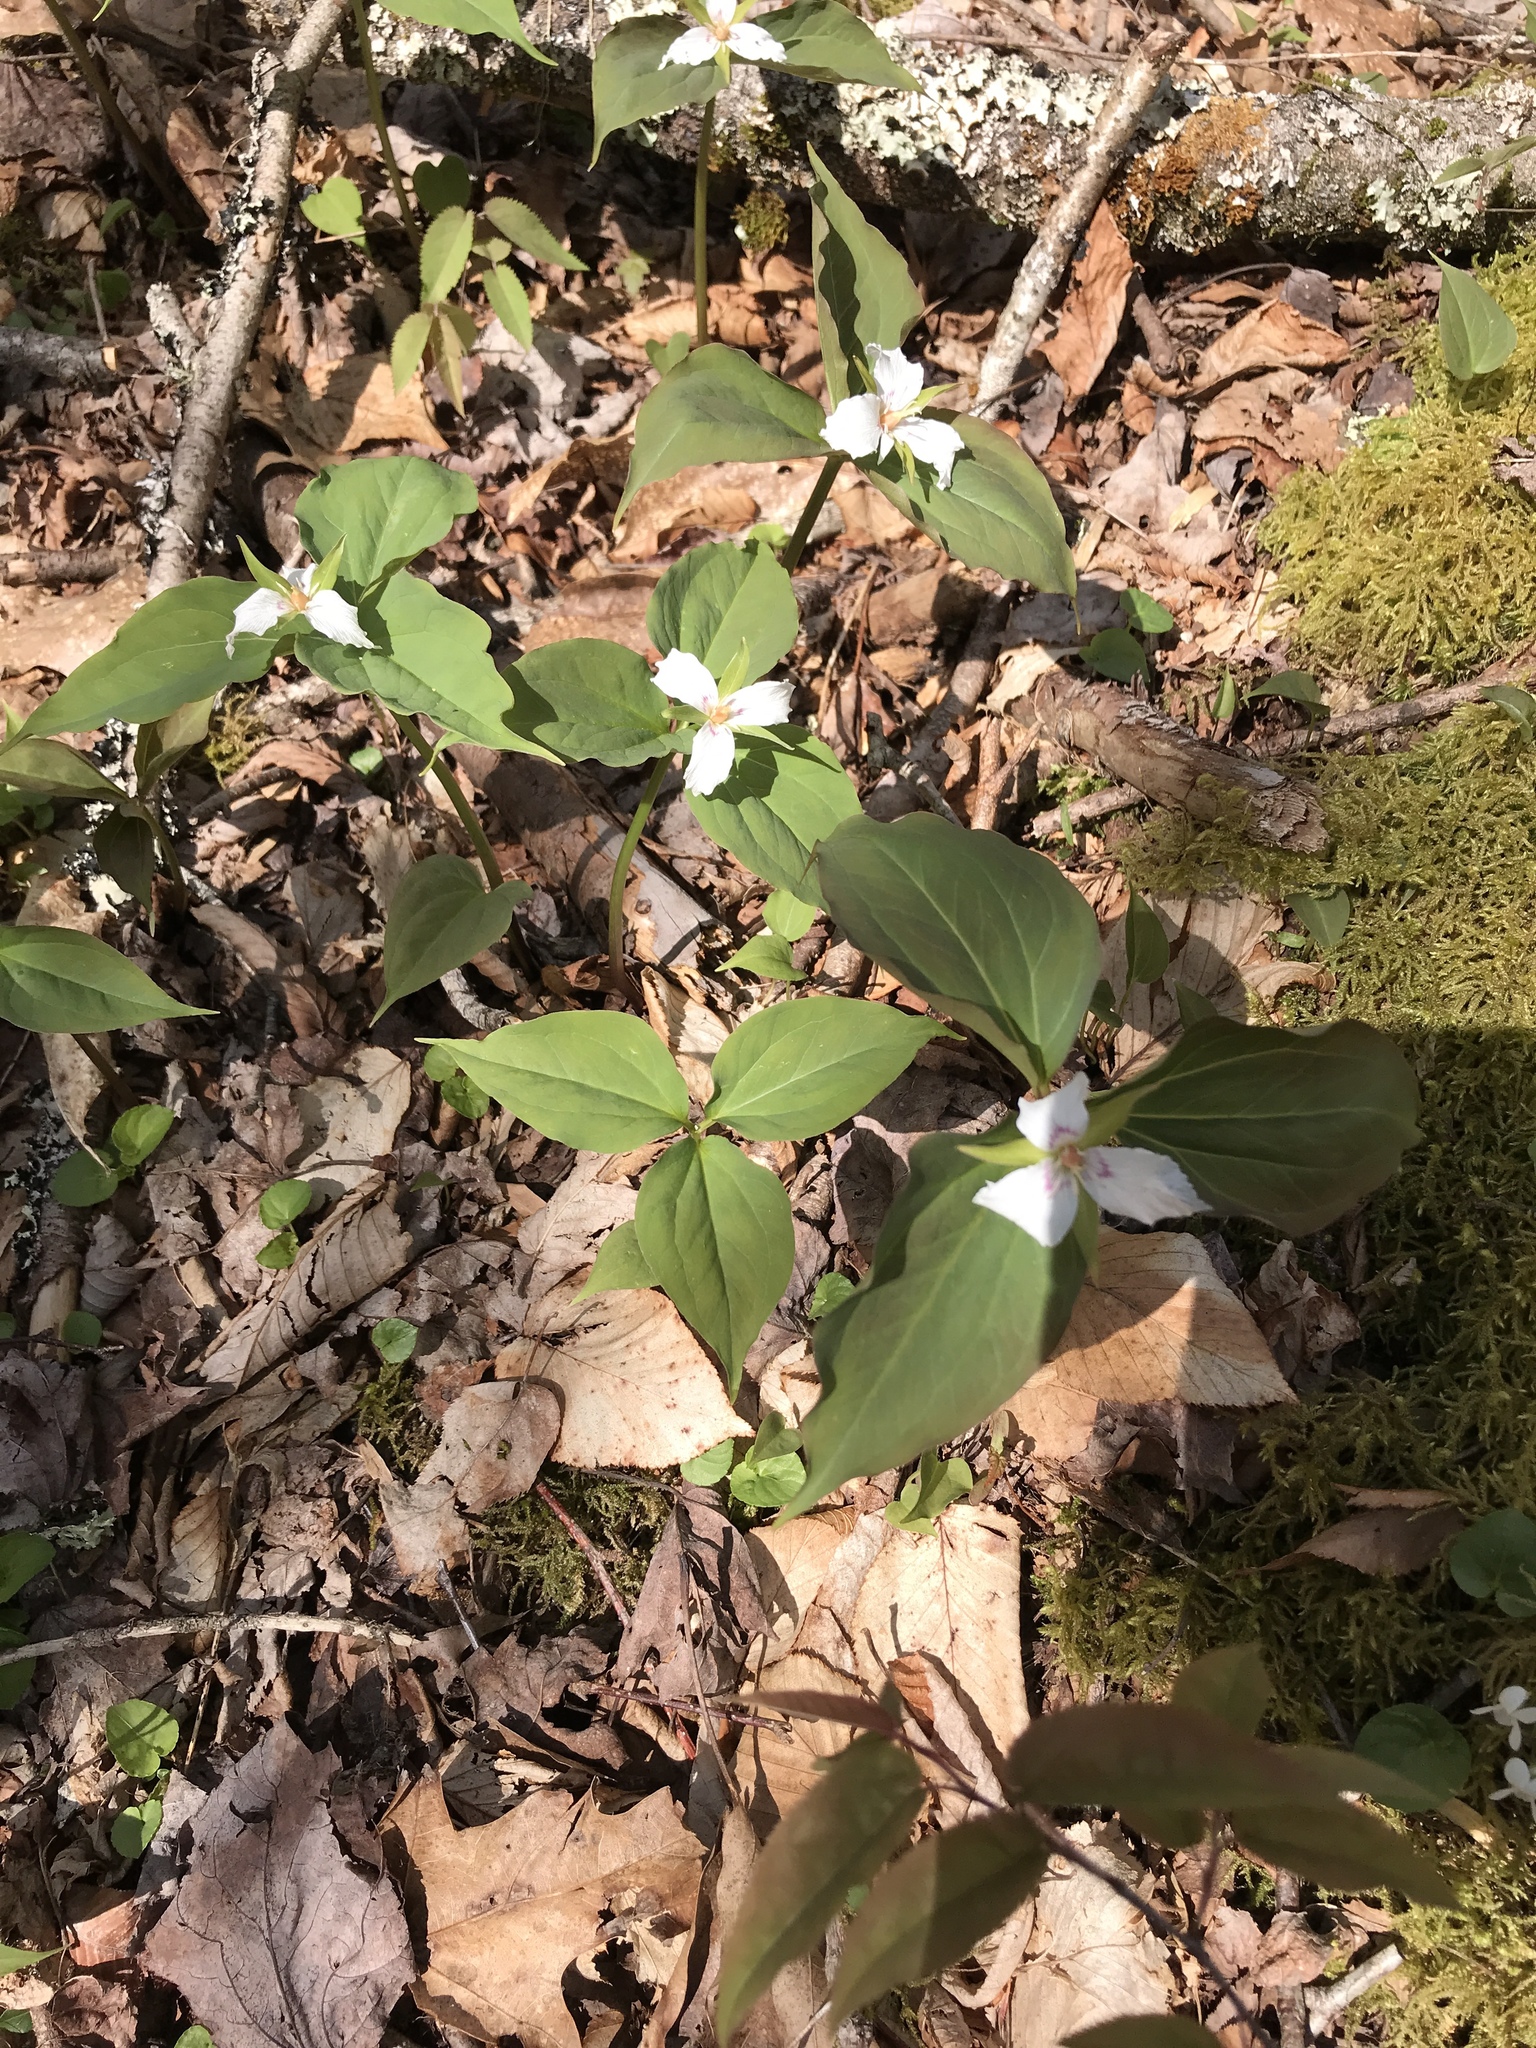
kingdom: Plantae
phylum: Tracheophyta
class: Liliopsida
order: Liliales
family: Melanthiaceae
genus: Trillium
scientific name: Trillium undulatum
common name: Paint trillium
